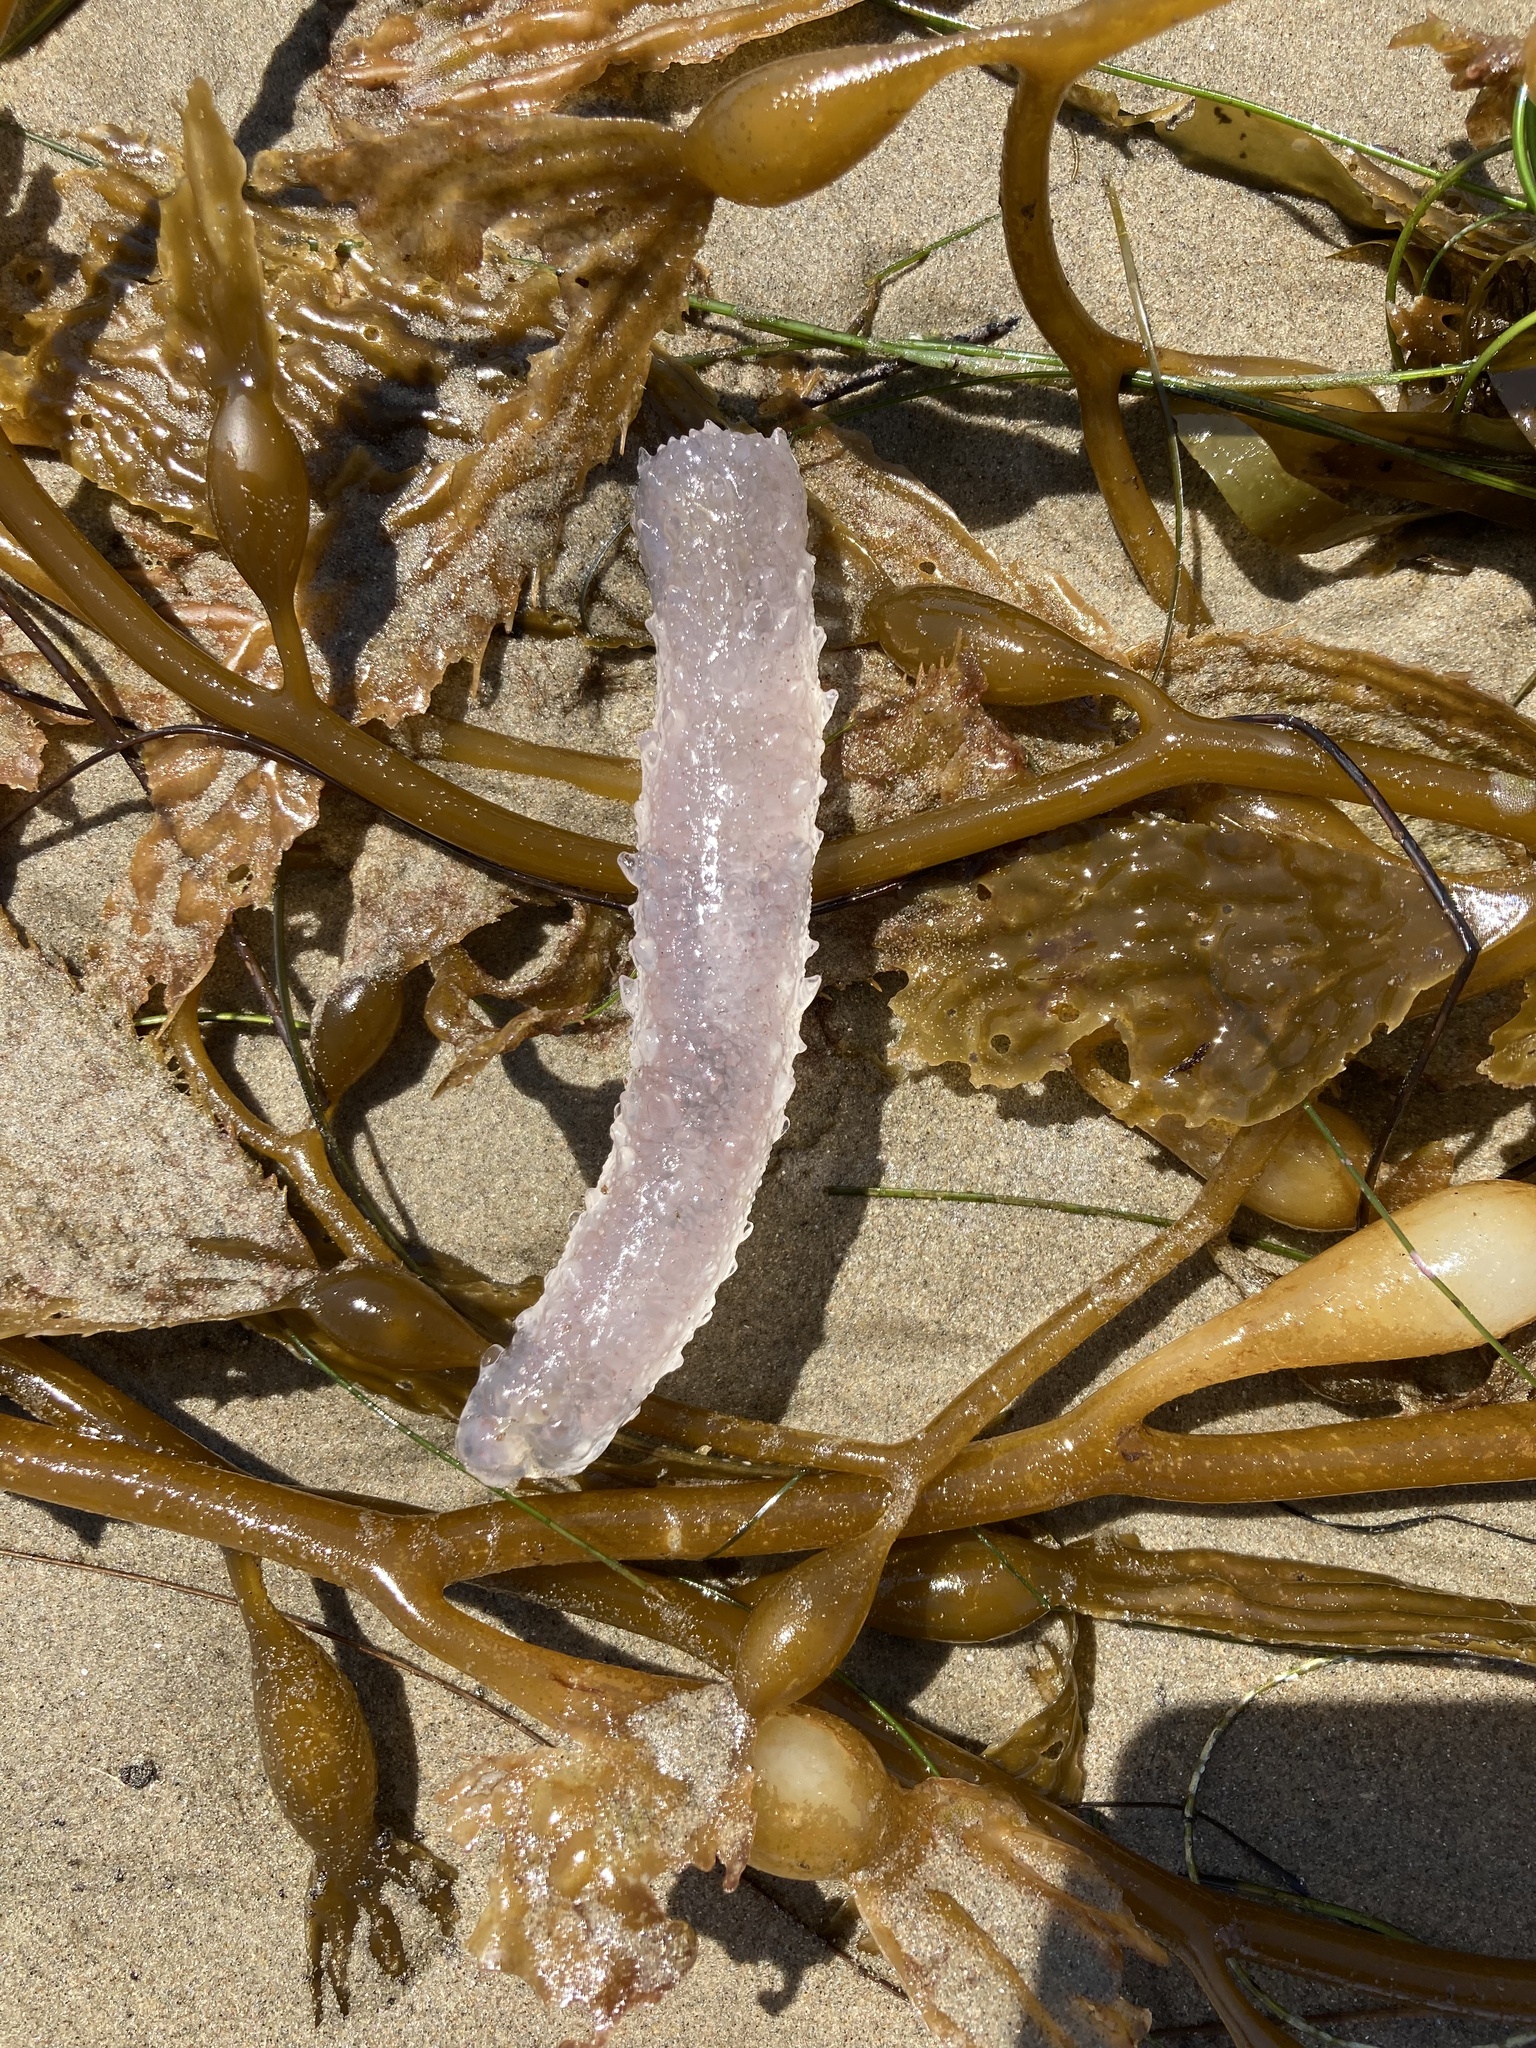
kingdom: Animalia
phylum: Chordata
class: Thaliacea
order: Pyrosomatida
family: Pyrosomatidae
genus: Pyrosoma
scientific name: Pyrosoma atlanticum
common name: Atlantic pyrosomes
